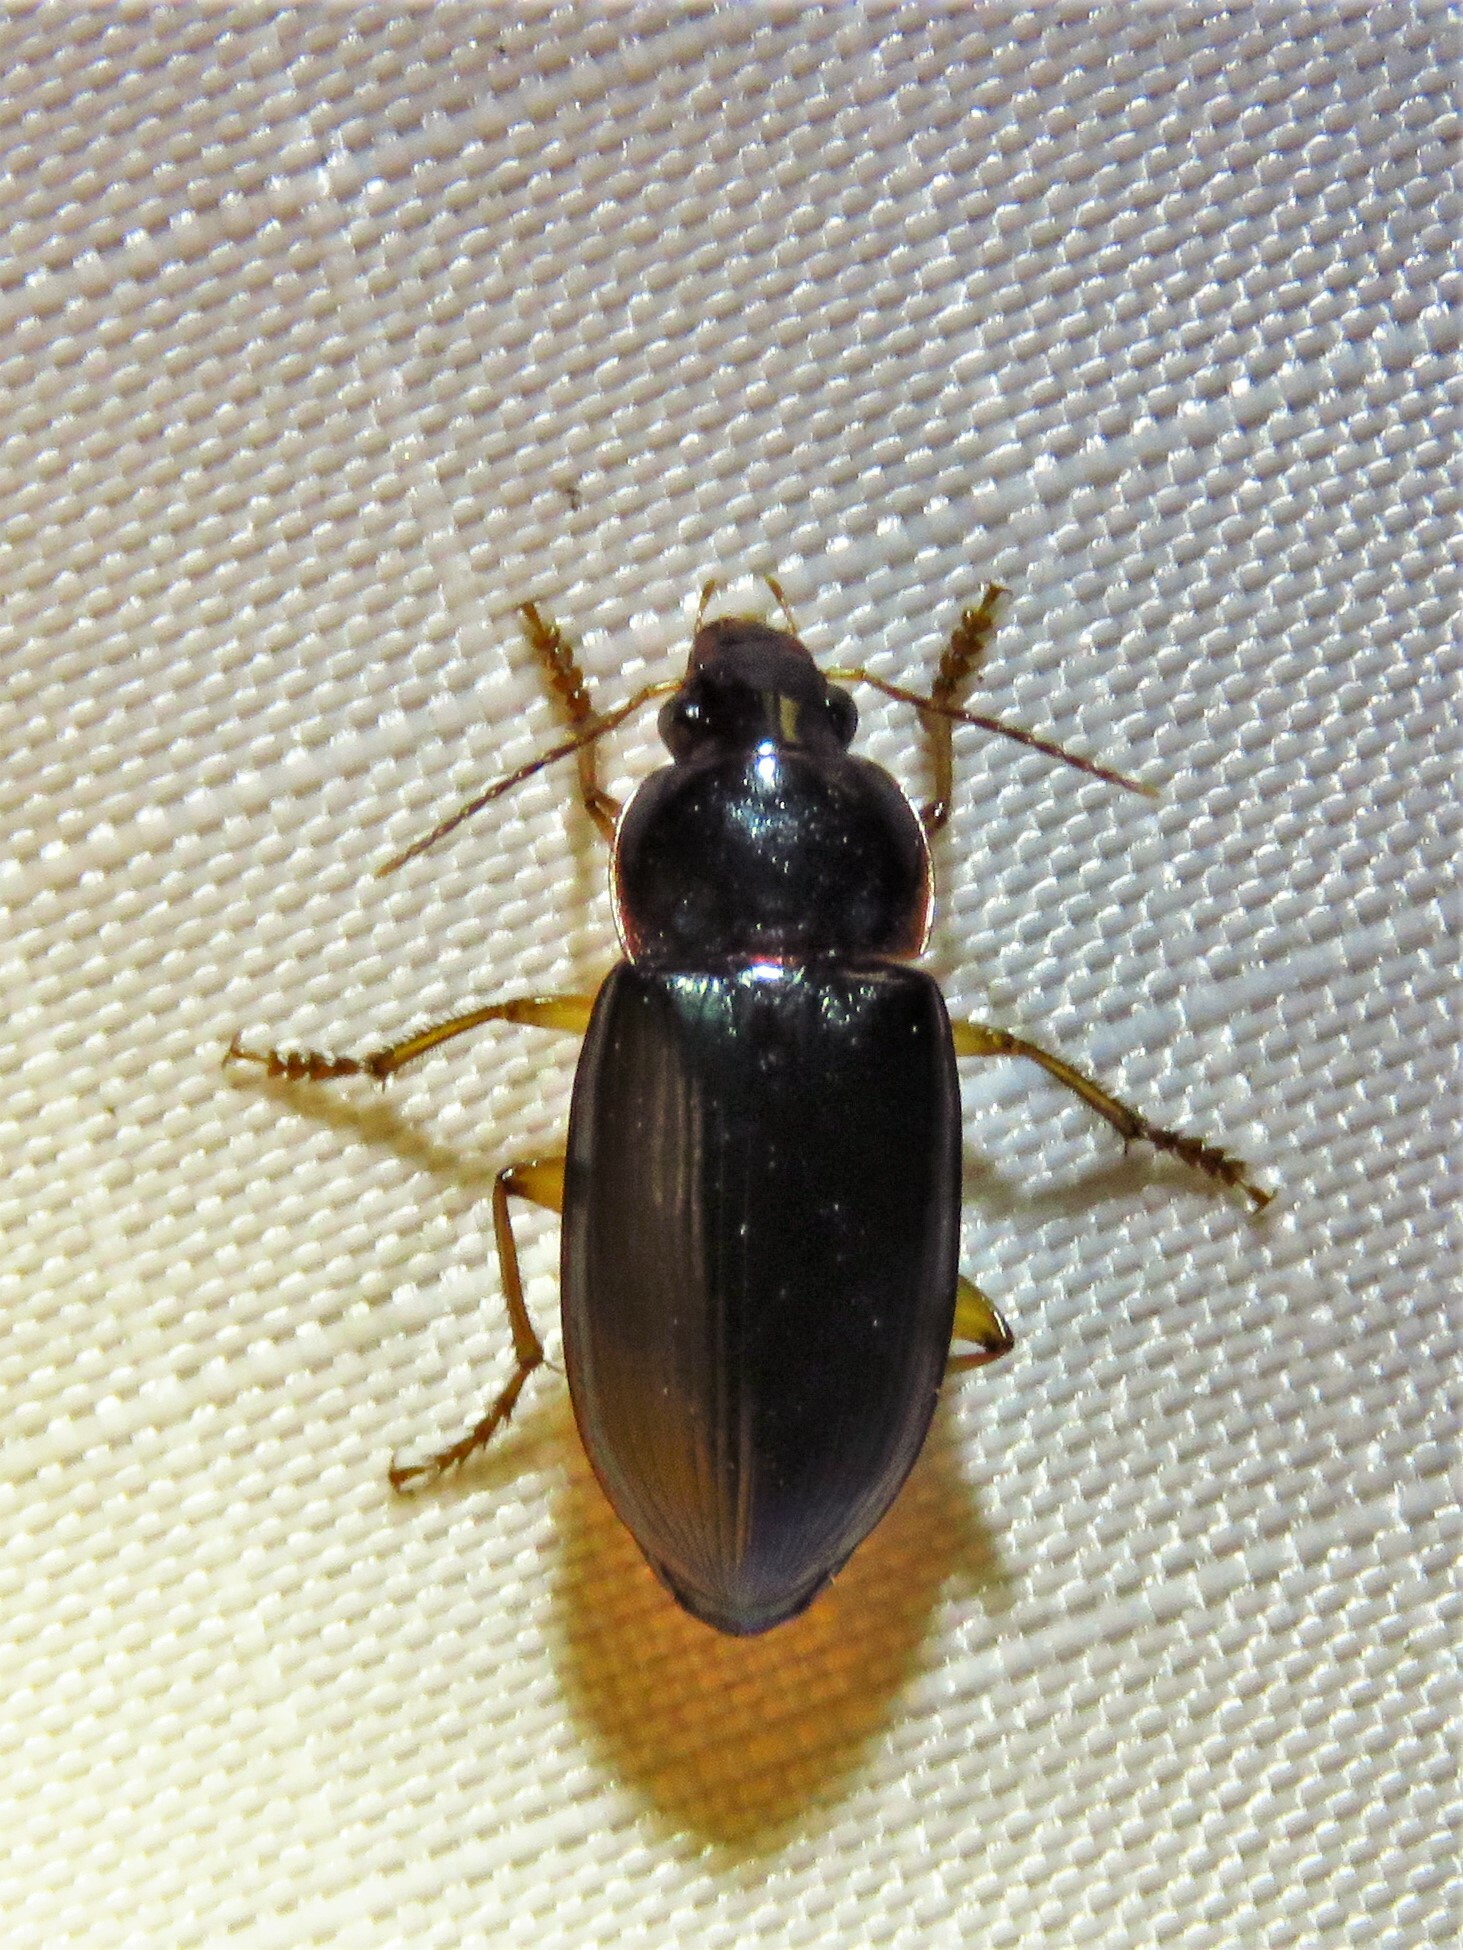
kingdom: Animalia
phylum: Arthropoda
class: Insecta
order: Coleoptera
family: Carabidae
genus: Notiobia
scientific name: Notiobia terminata
